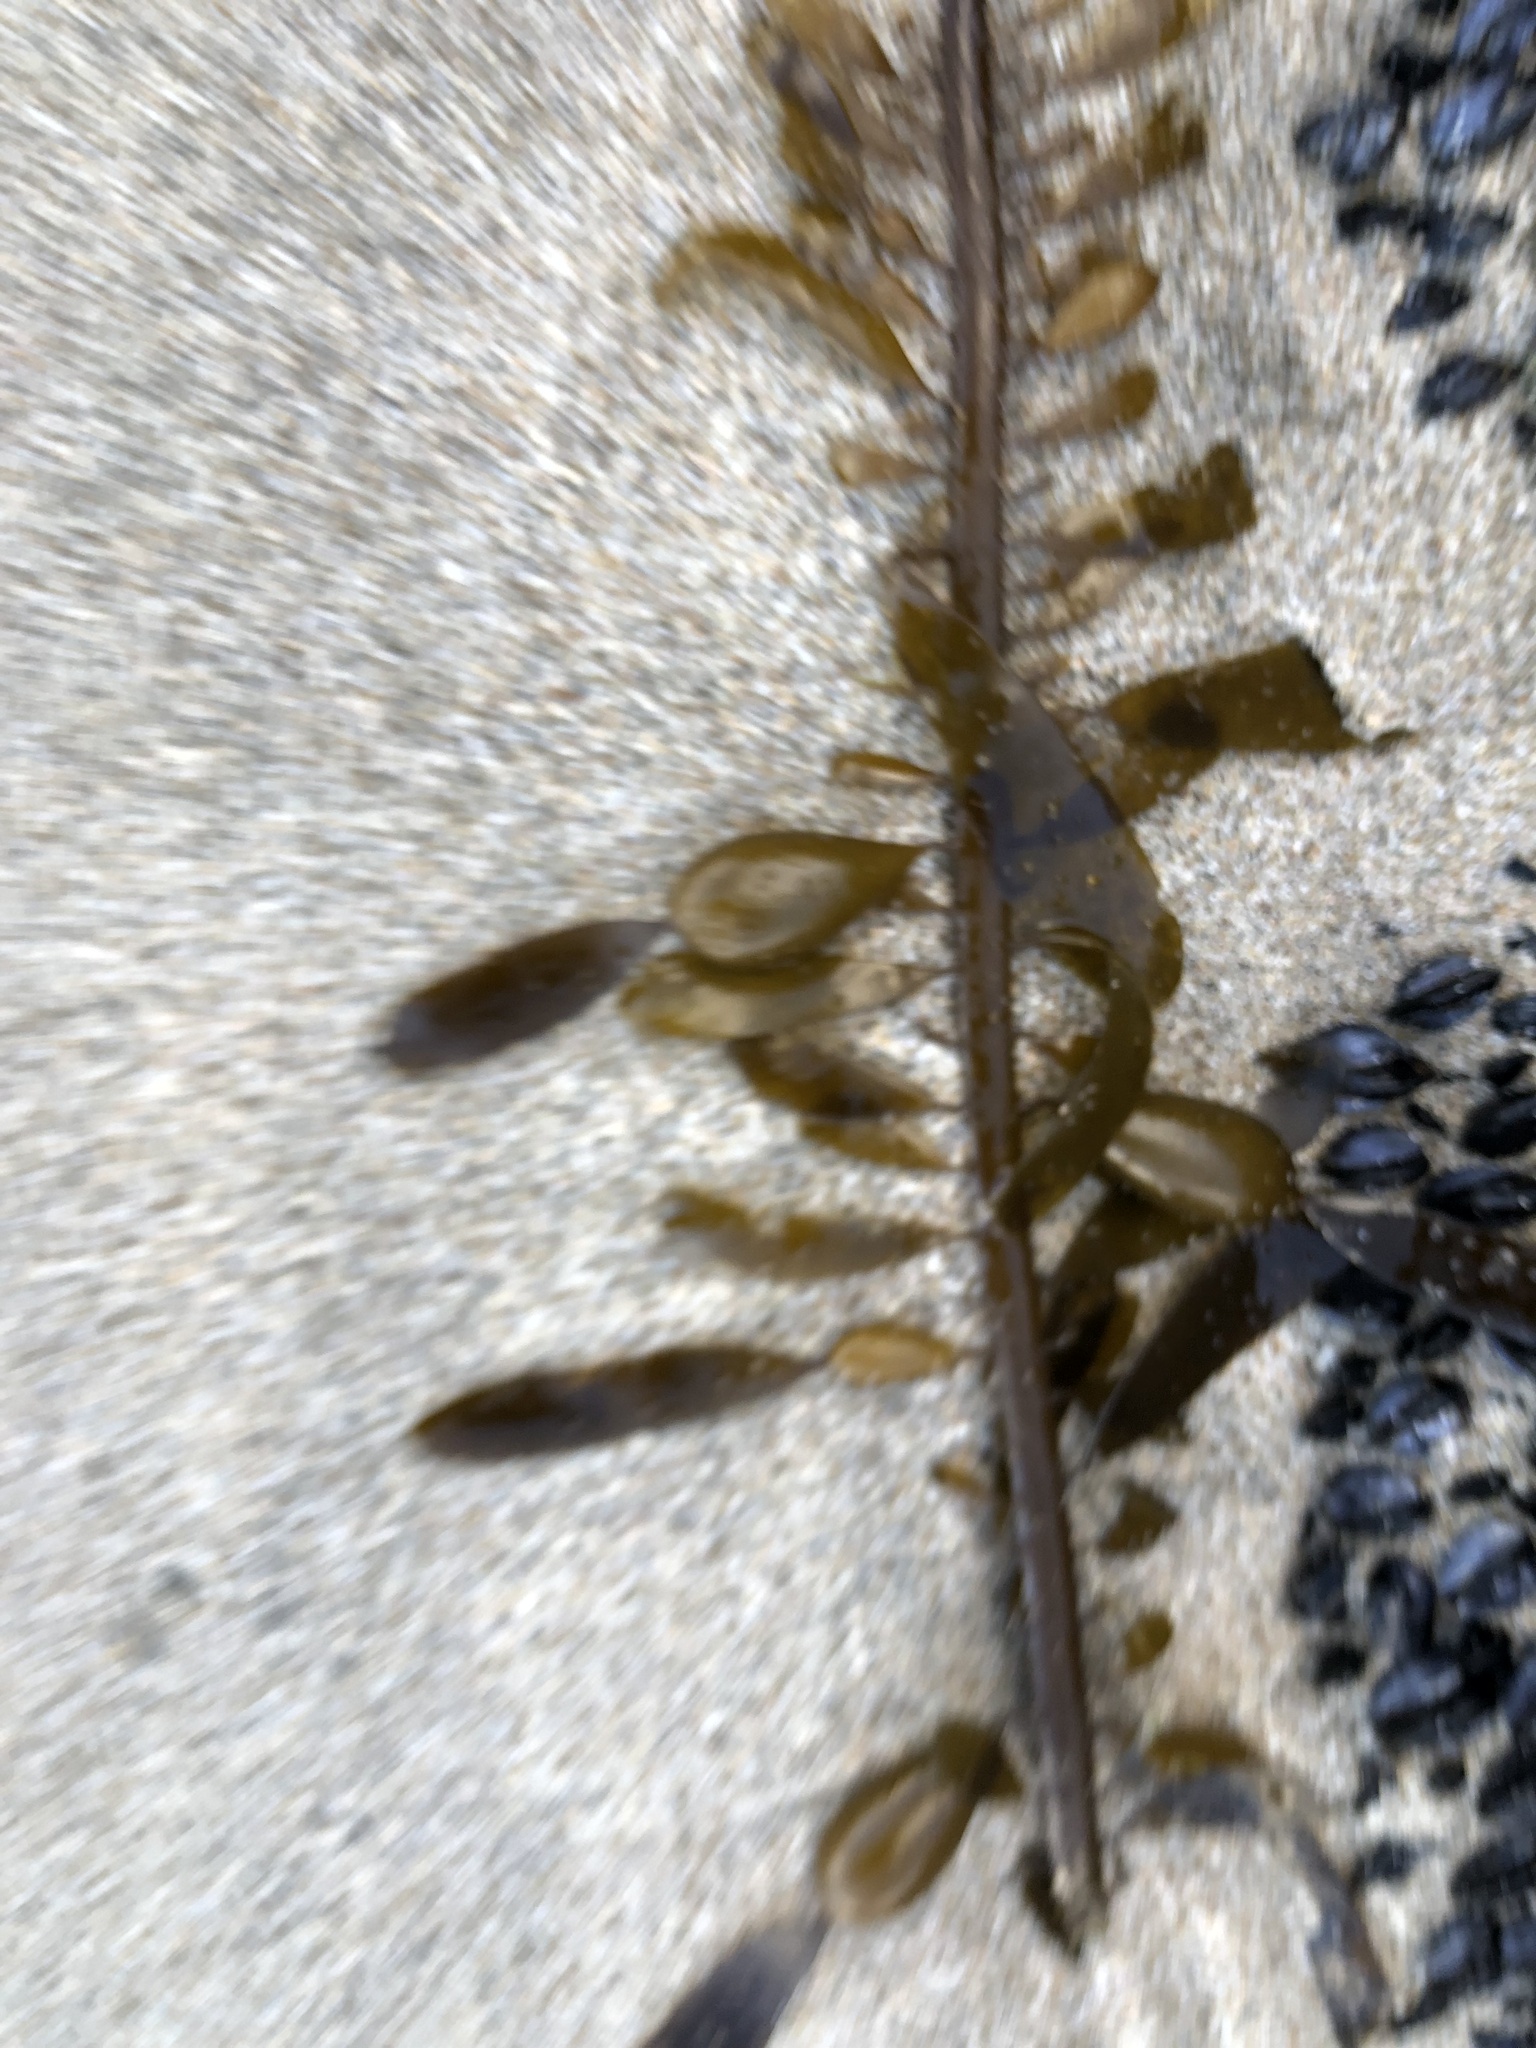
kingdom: Chromista
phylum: Ochrophyta
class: Phaeophyceae
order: Laminariales
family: Lessoniaceae
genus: Egregia
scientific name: Egregia menziesii
